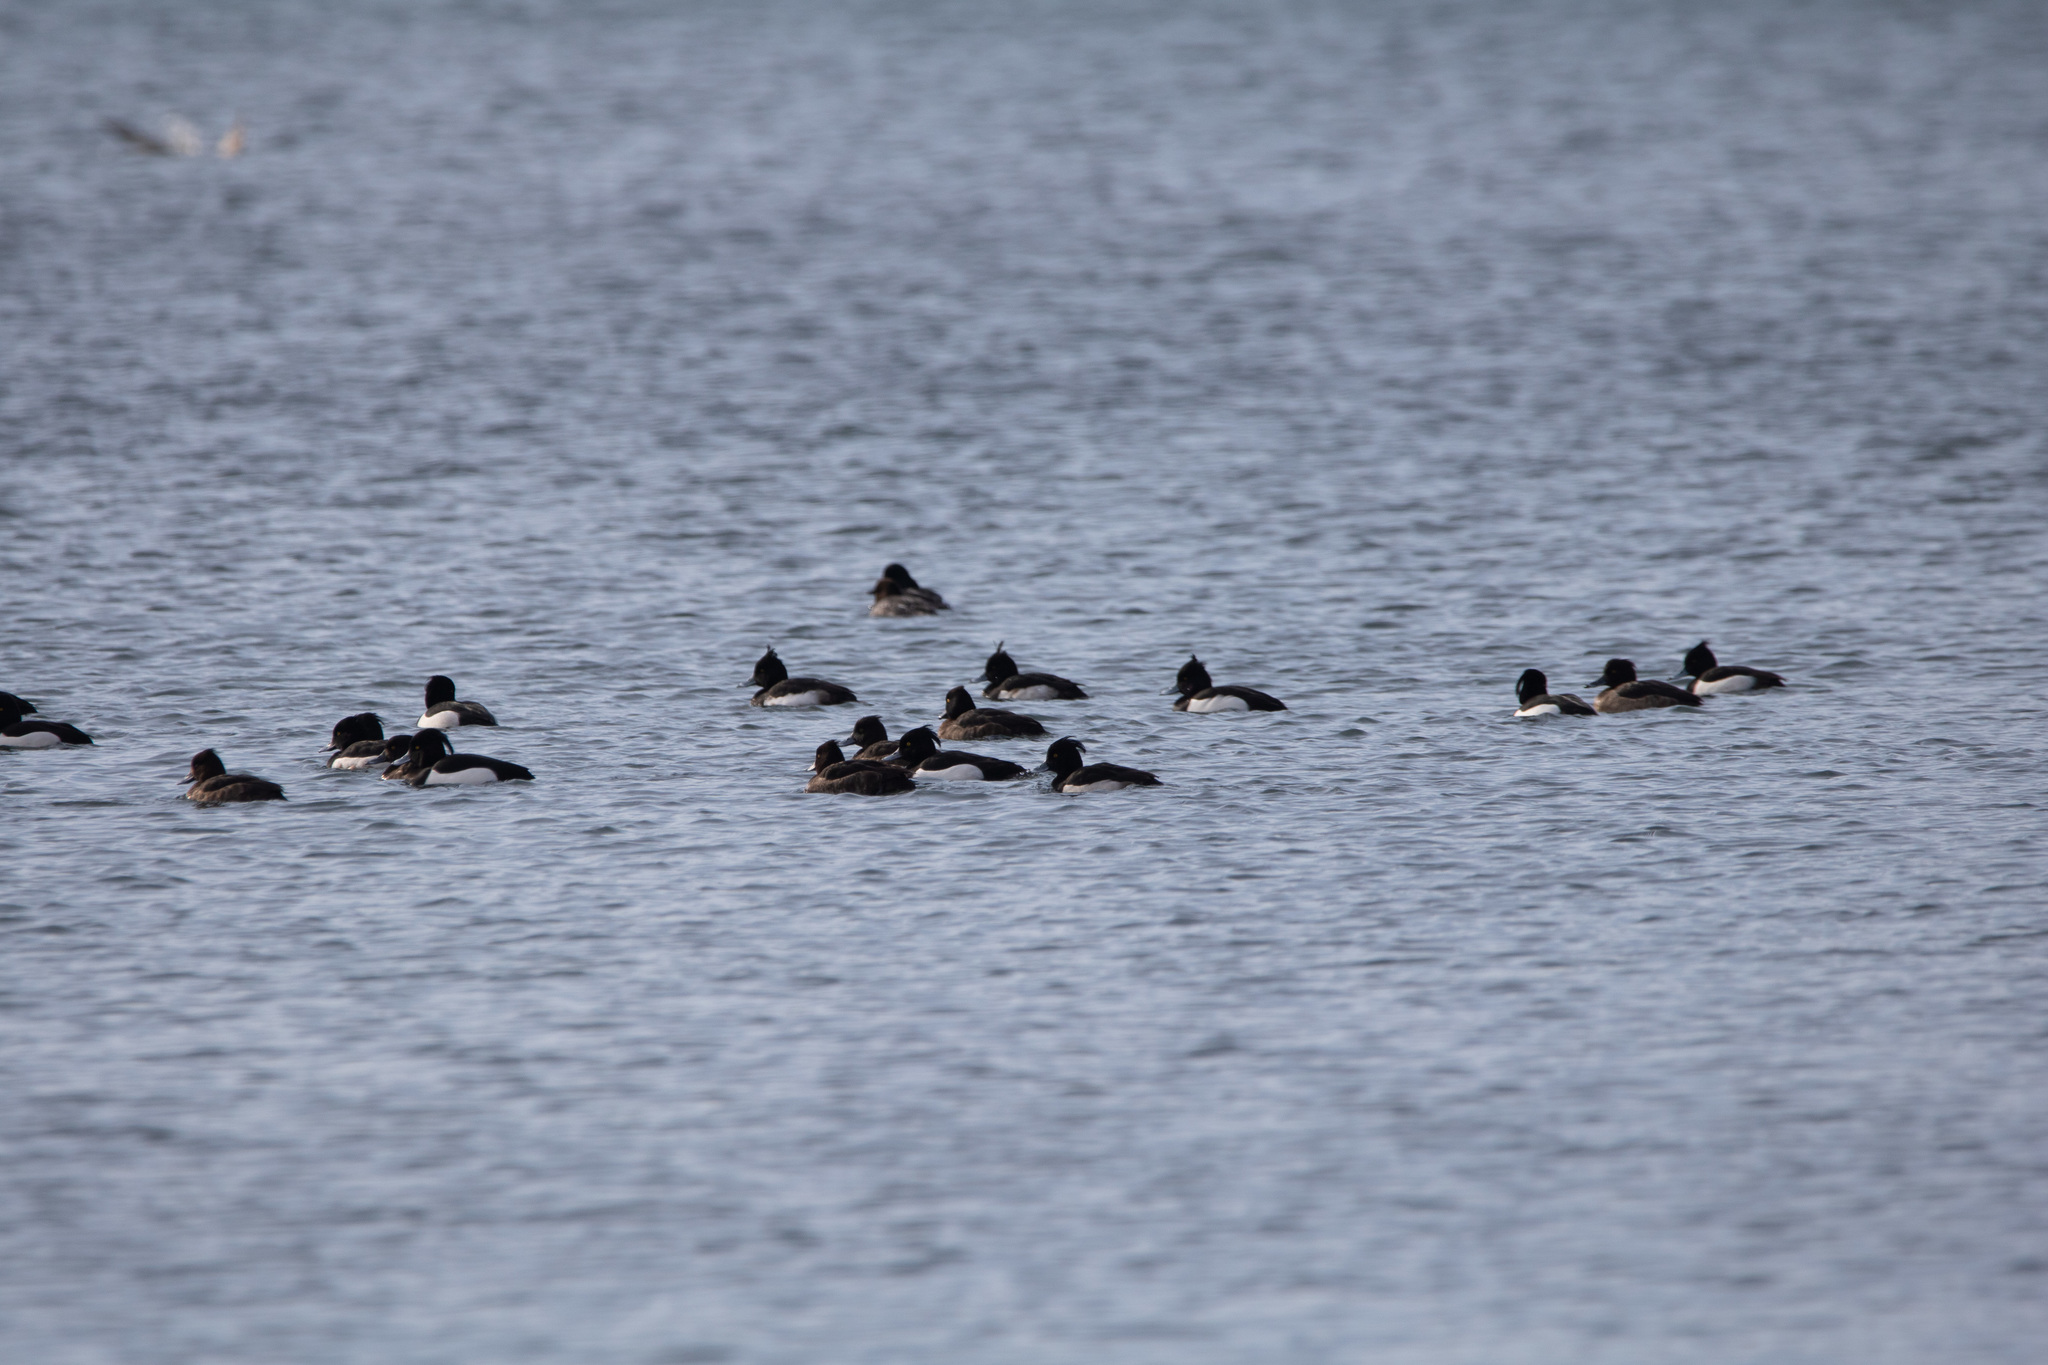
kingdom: Animalia
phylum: Chordata
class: Aves
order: Anseriformes
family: Anatidae
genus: Aythya
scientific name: Aythya fuligula
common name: Tufted duck
